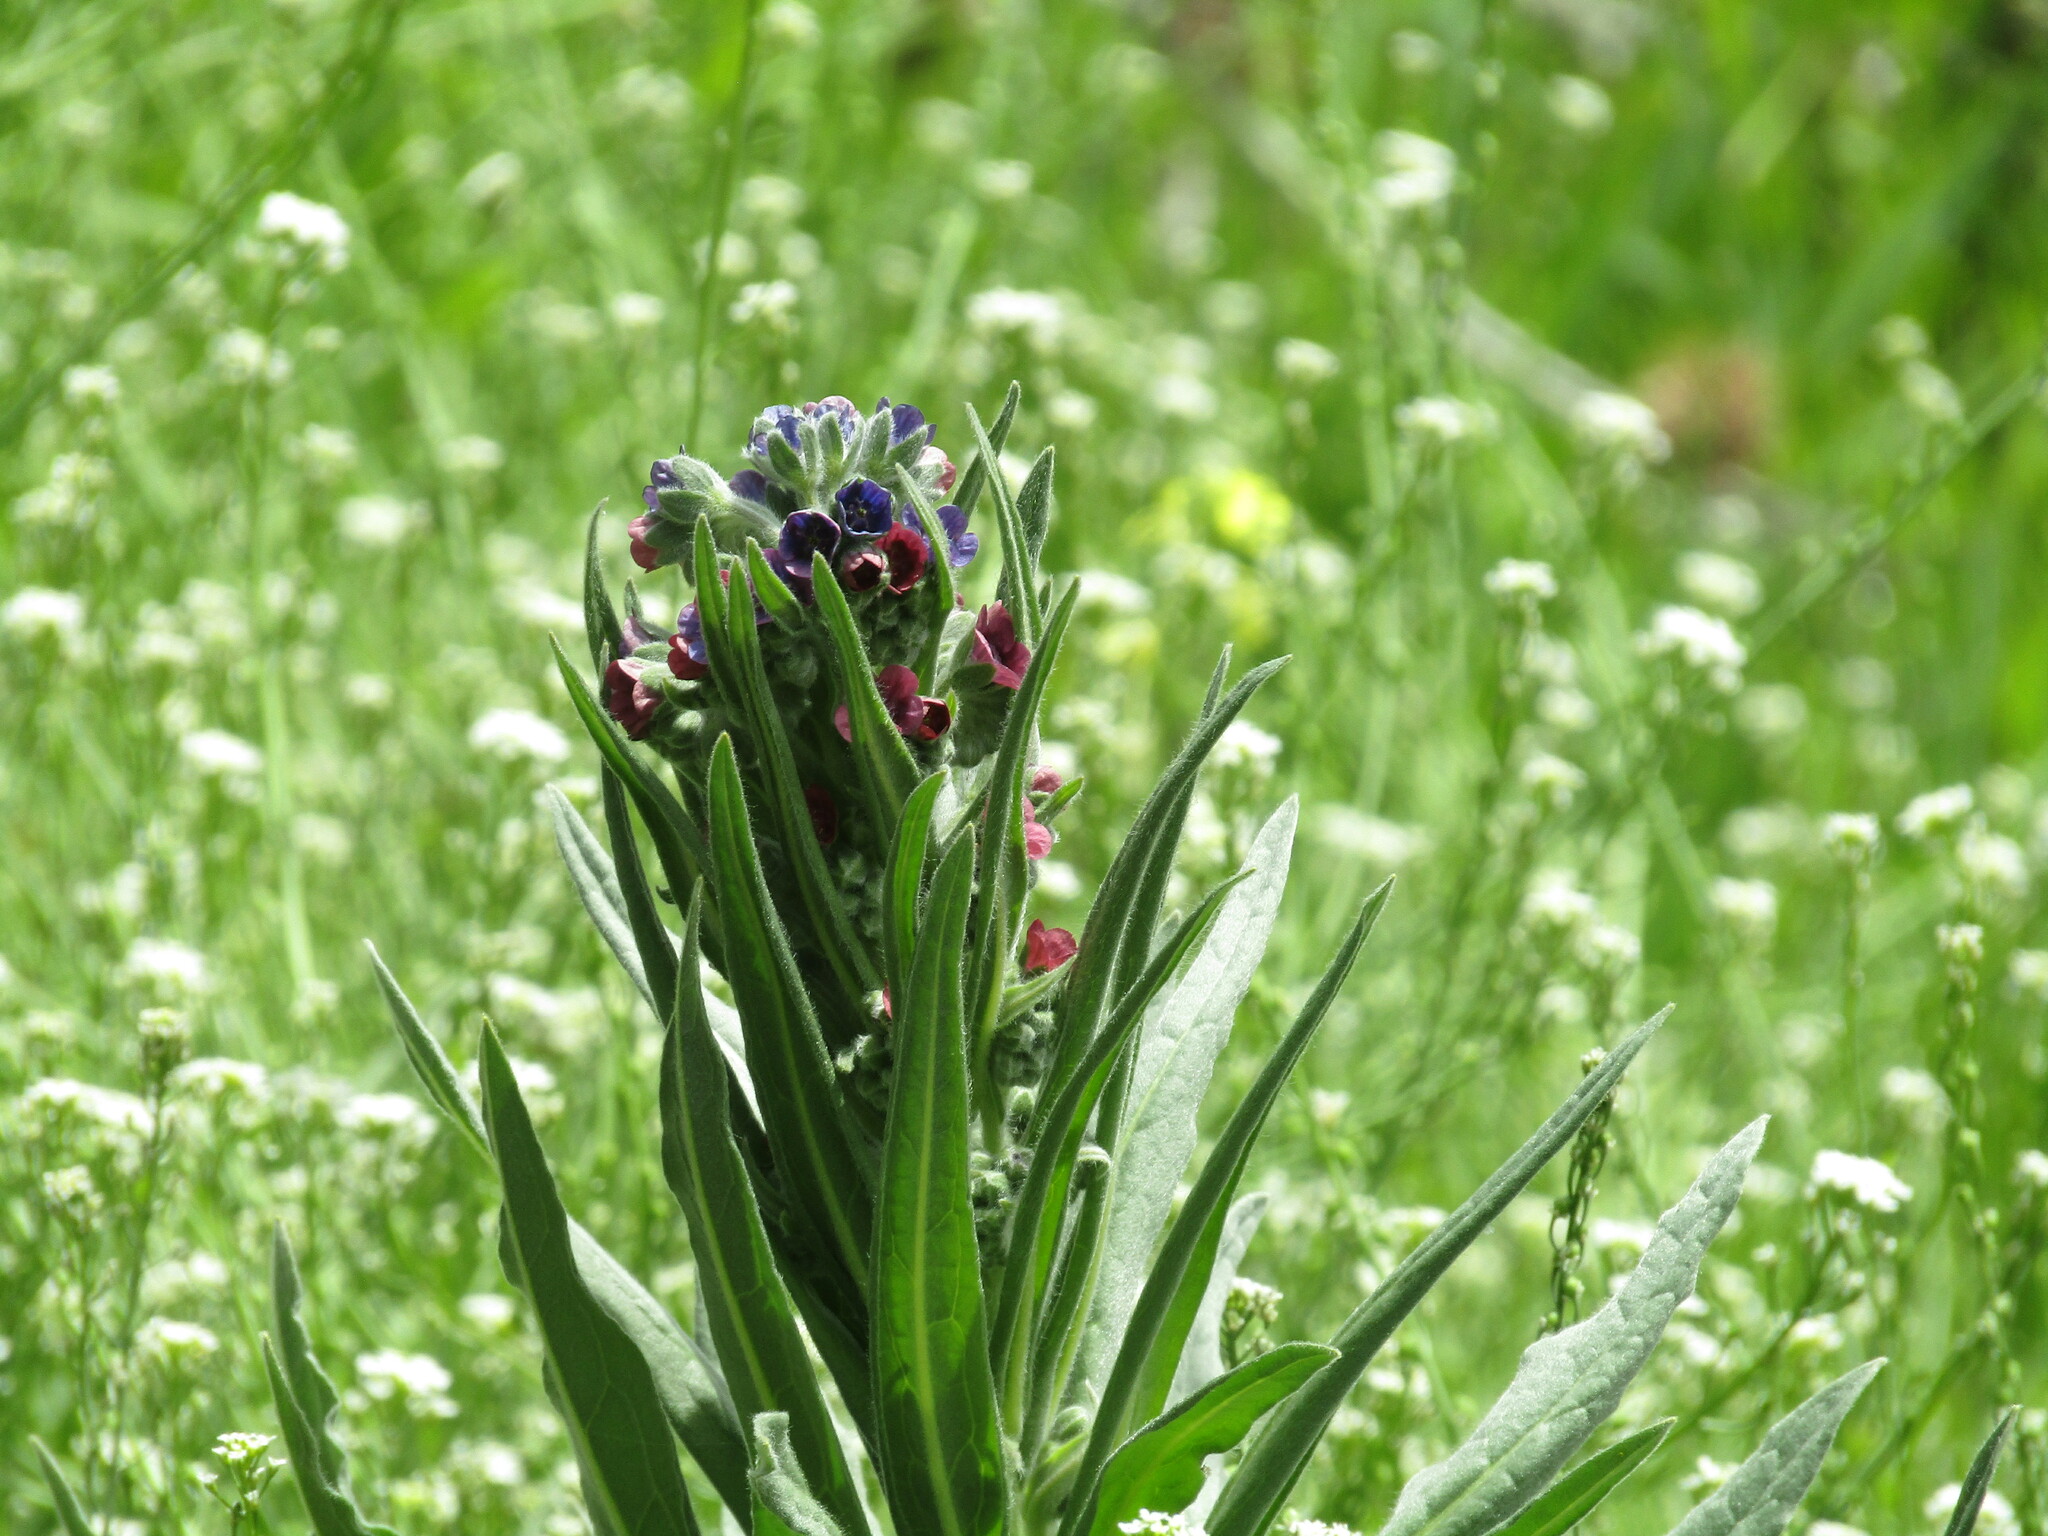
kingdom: Plantae
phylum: Tracheophyta
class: Magnoliopsida
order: Boraginales
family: Boraginaceae
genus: Cynoglossum
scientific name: Cynoglossum officinale
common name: Hound's-tongue
